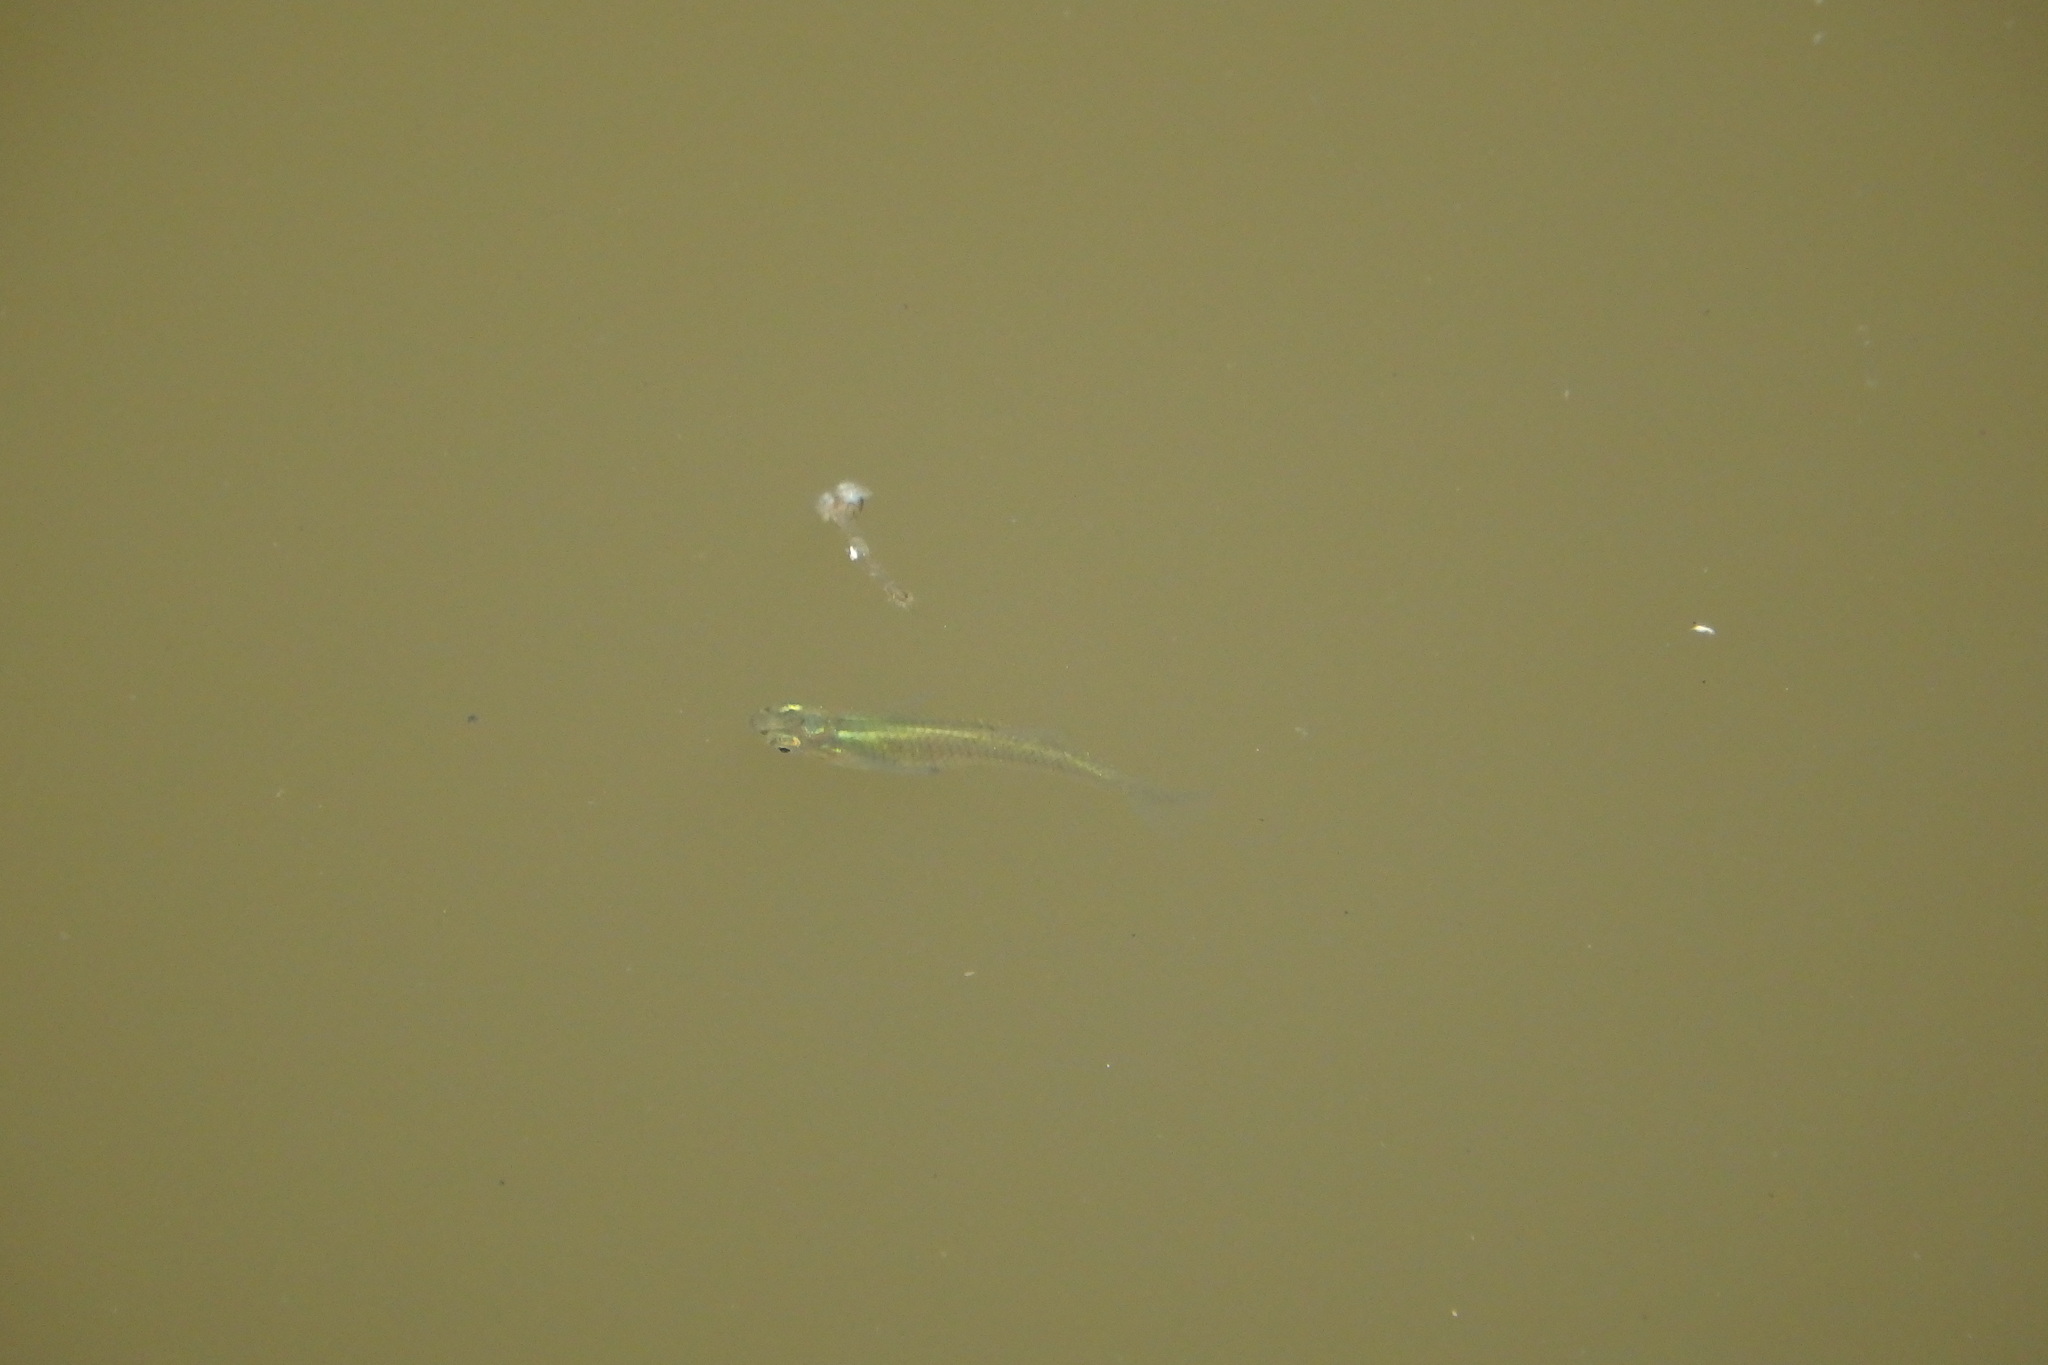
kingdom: Animalia
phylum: Chordata
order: Cyprinodontiformes
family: Poeciliidae
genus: Gambusia
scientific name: Gambusia holbrooki
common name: Eastern mosquitofish
